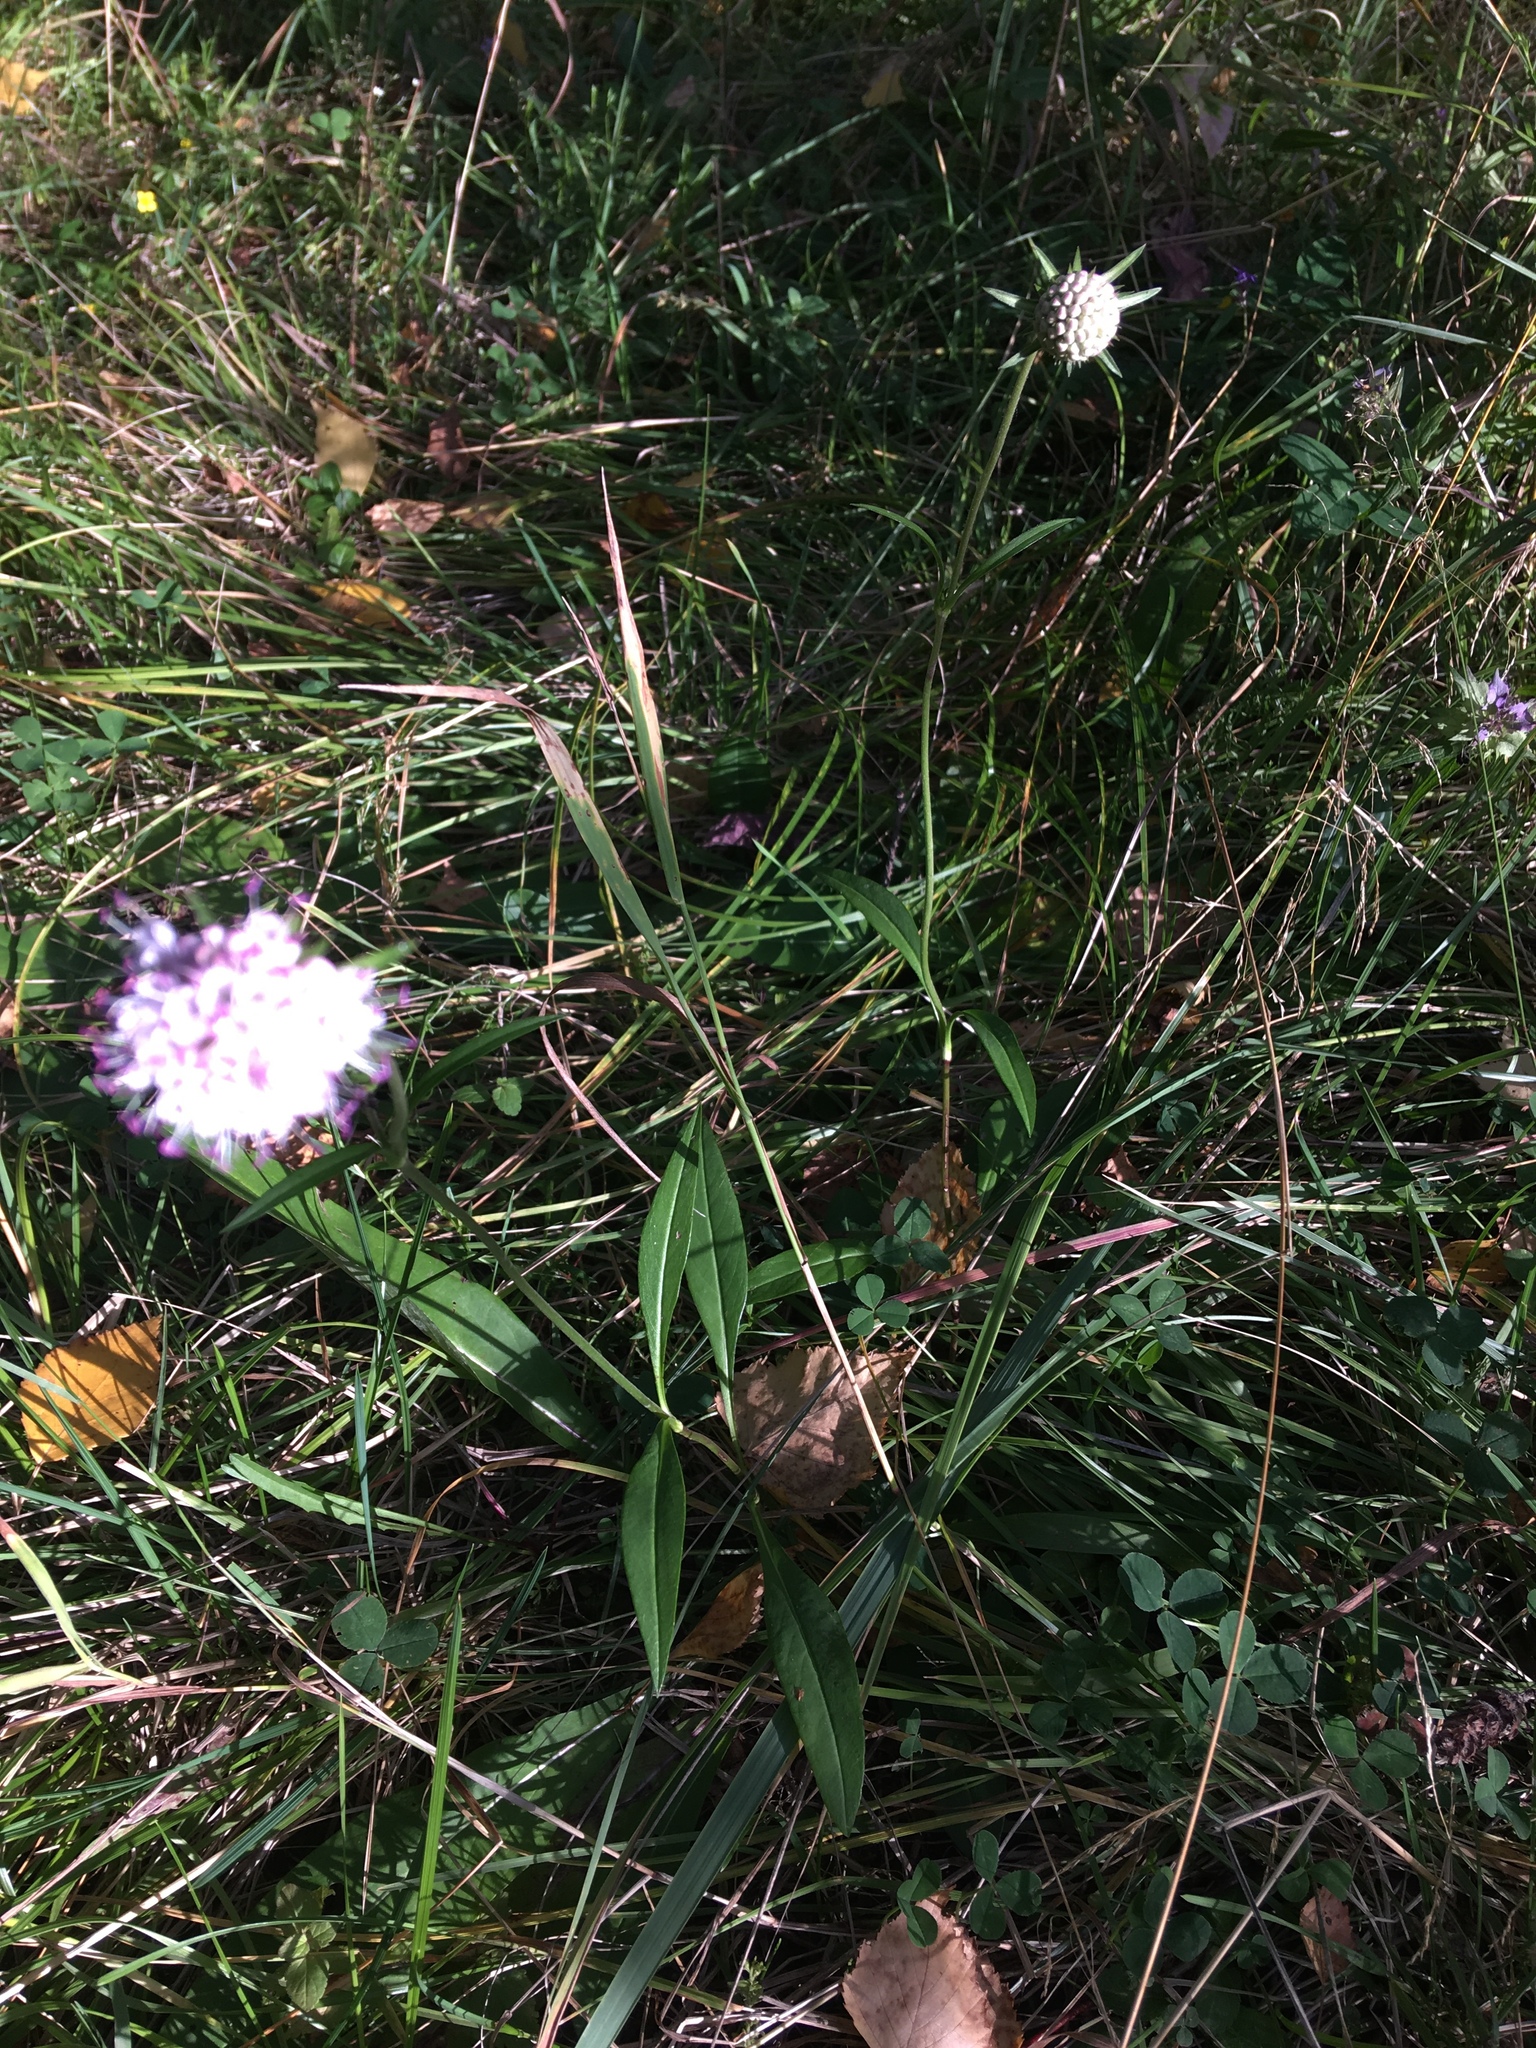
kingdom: Plantae
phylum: Tracheophyta
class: Magnoliopsida
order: Dipsacales
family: Caprifoliaceae
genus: Succisa
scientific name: Succisa pratensis
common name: Devil's-bit
